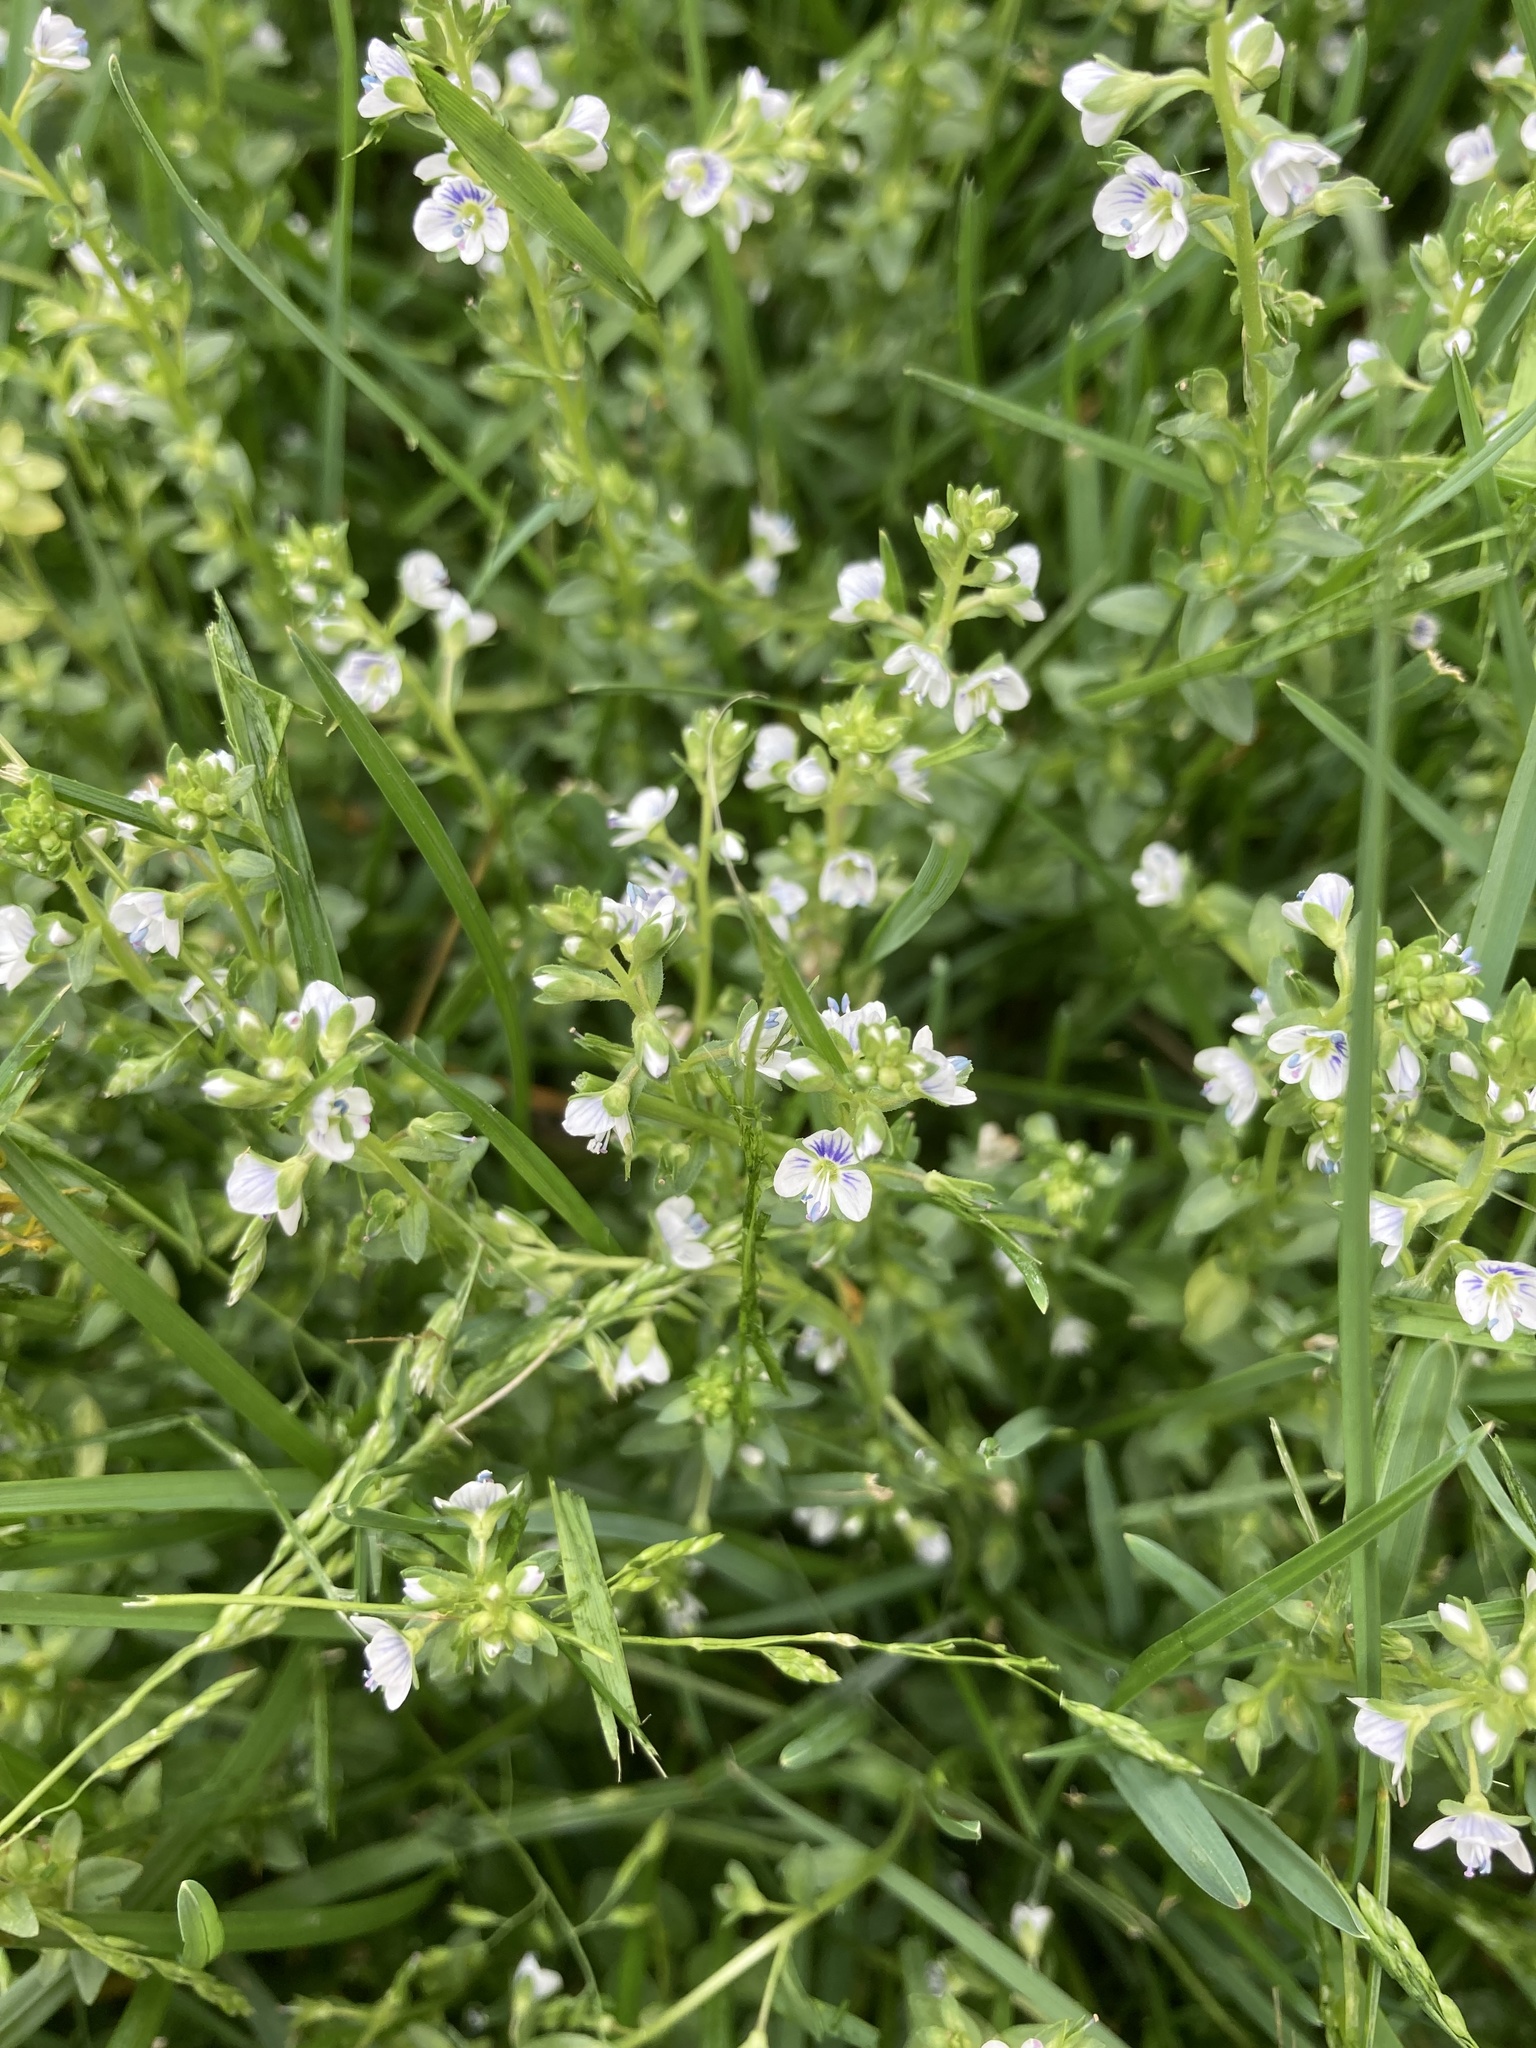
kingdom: Plantae
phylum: Tracheophyta
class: Magnoliopsida
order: Lamiales
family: Plantaginaceae
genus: Veronica
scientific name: Veronica serpyllifolia
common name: Thyme-leaved speedwell
